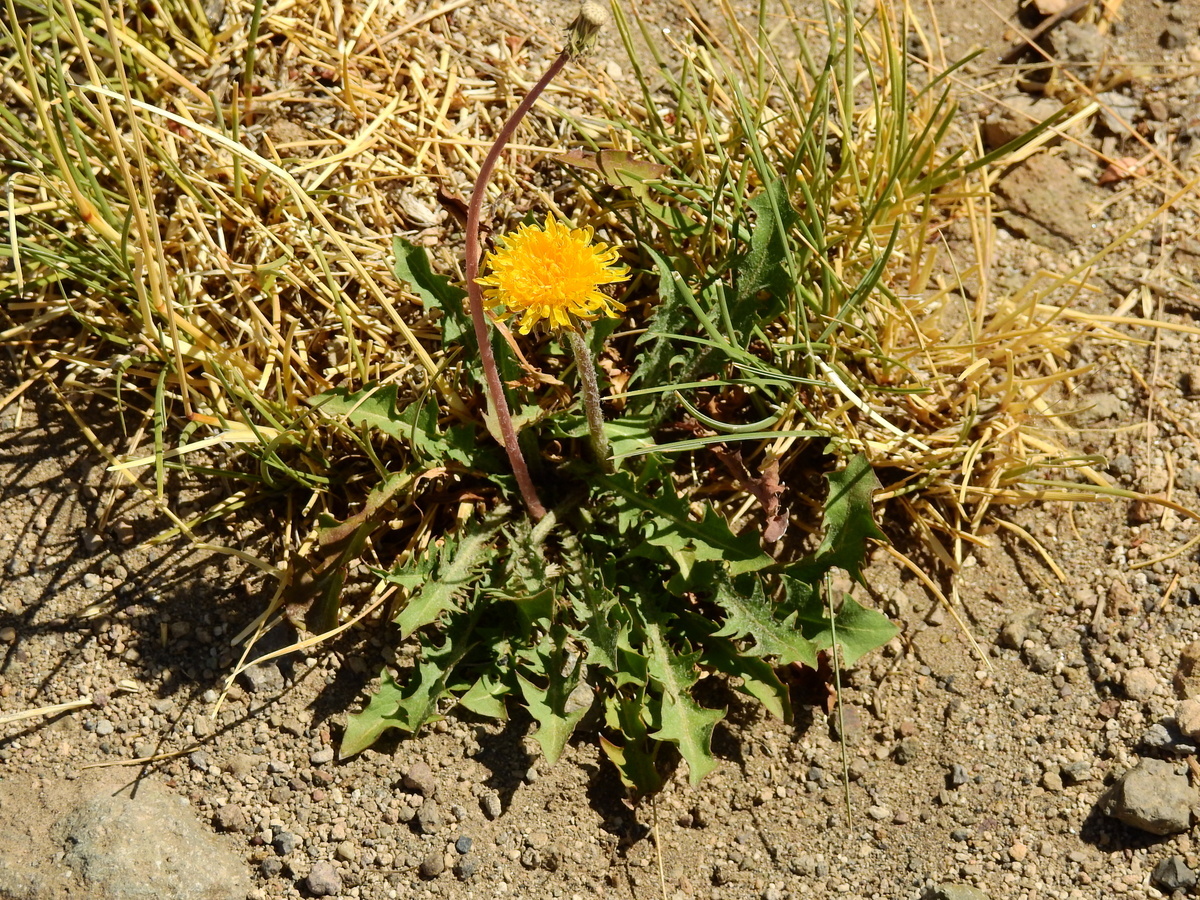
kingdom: Plantae
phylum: Tracheophyta
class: Magnoliopsida
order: Asterales
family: Asteraceae
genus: Taraxacum
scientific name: Taraxacum officinale
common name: Common dandelion
